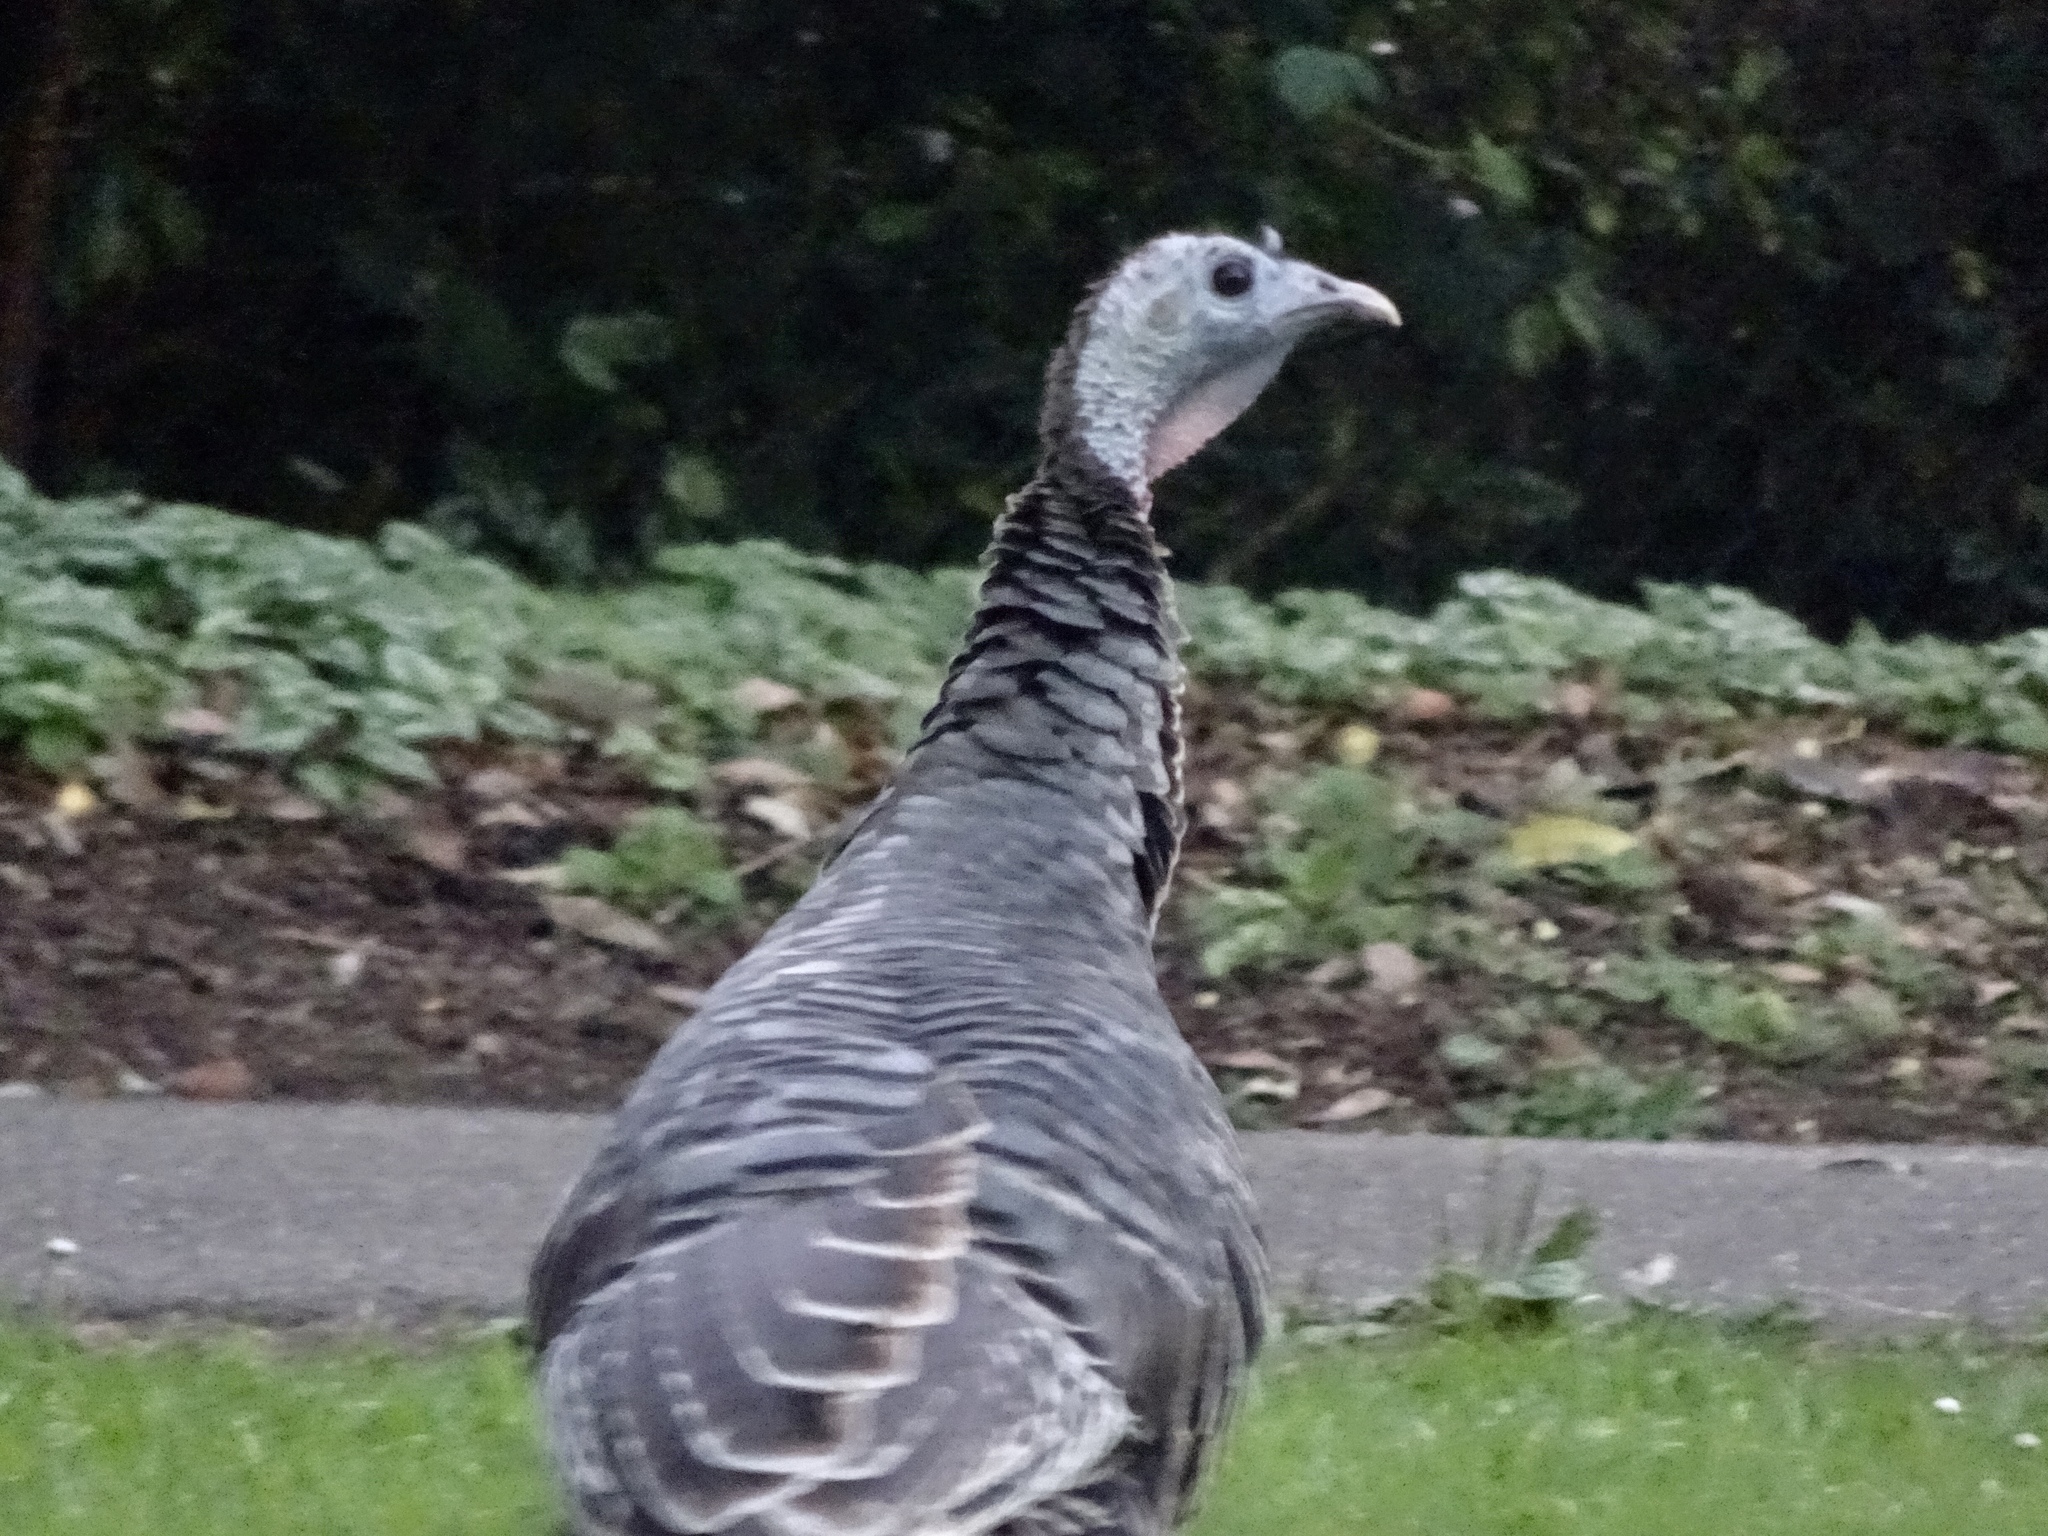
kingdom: Animalia
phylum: Chordata
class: Aves
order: Galliformes
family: Phasianidae
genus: Meleagris
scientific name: Meleagris gallopavo
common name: Wild turkey
